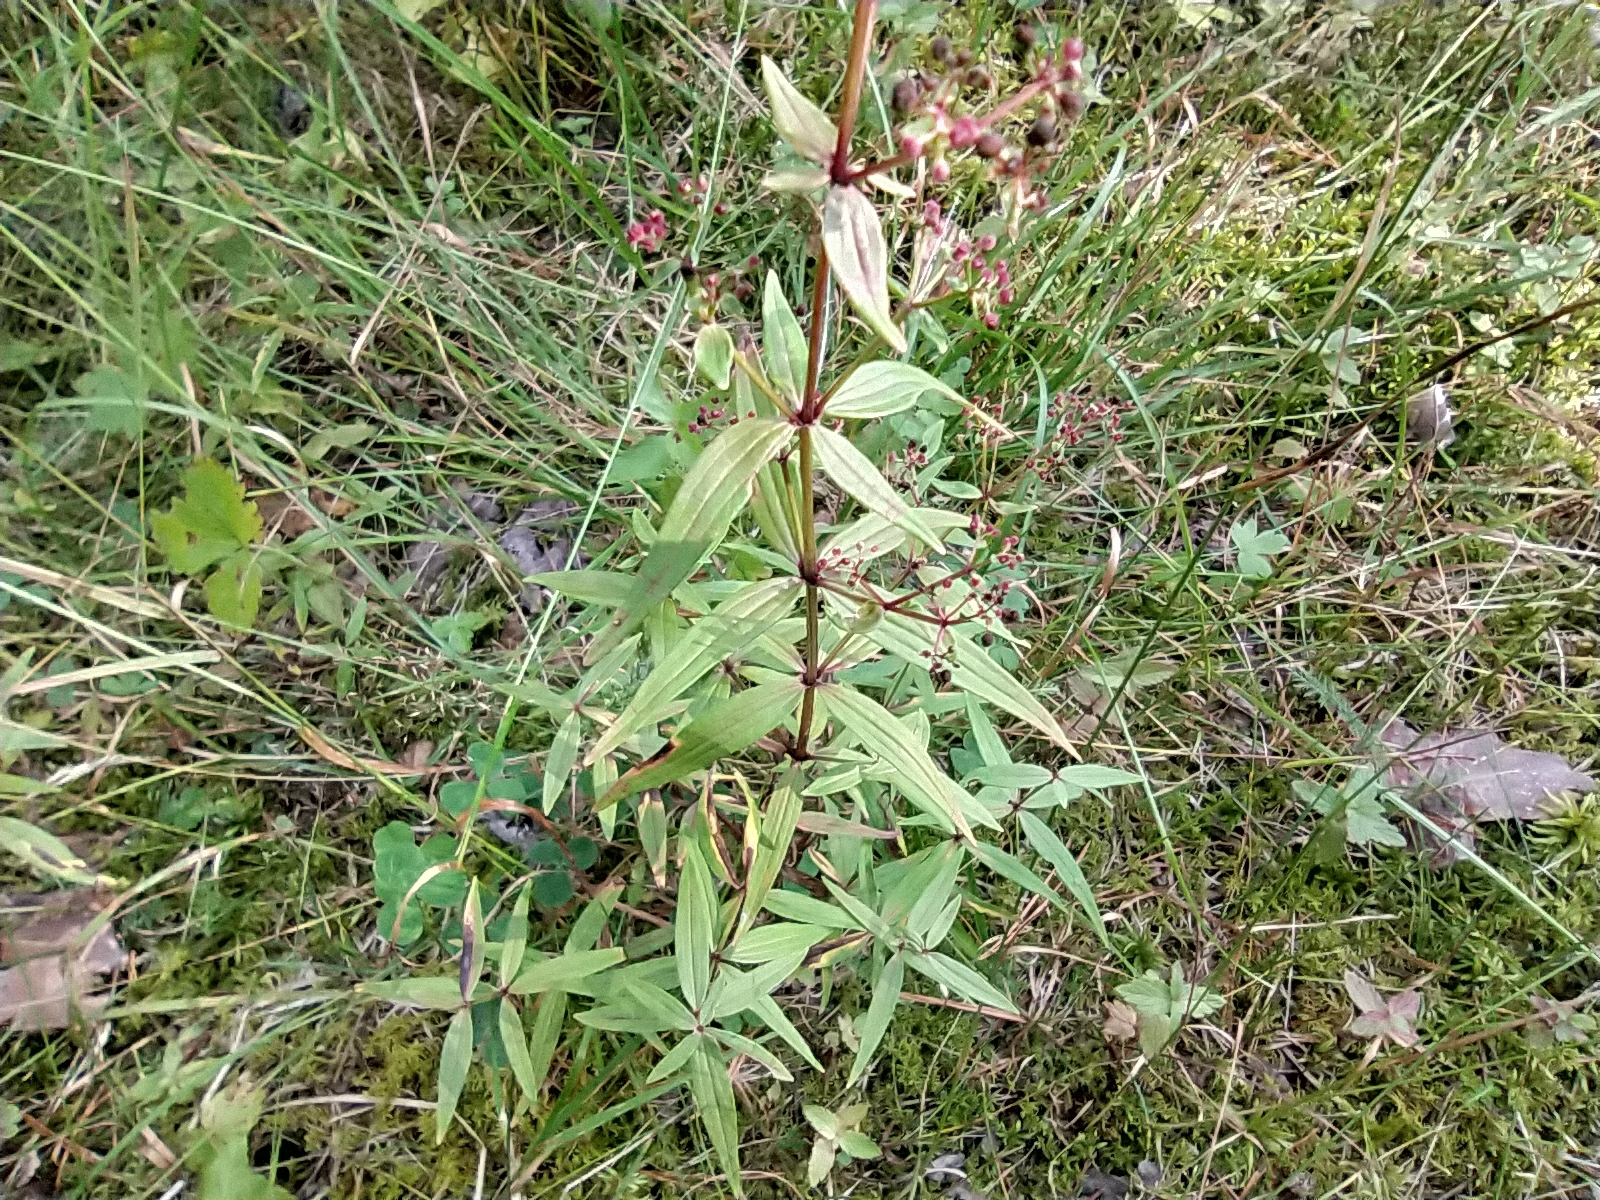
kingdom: Plantae
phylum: Tracheophyta
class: Magnoliopsida
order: Gentianales
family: Rubiaceae
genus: Galium
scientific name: Galium boreale
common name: Northern bedstraw
